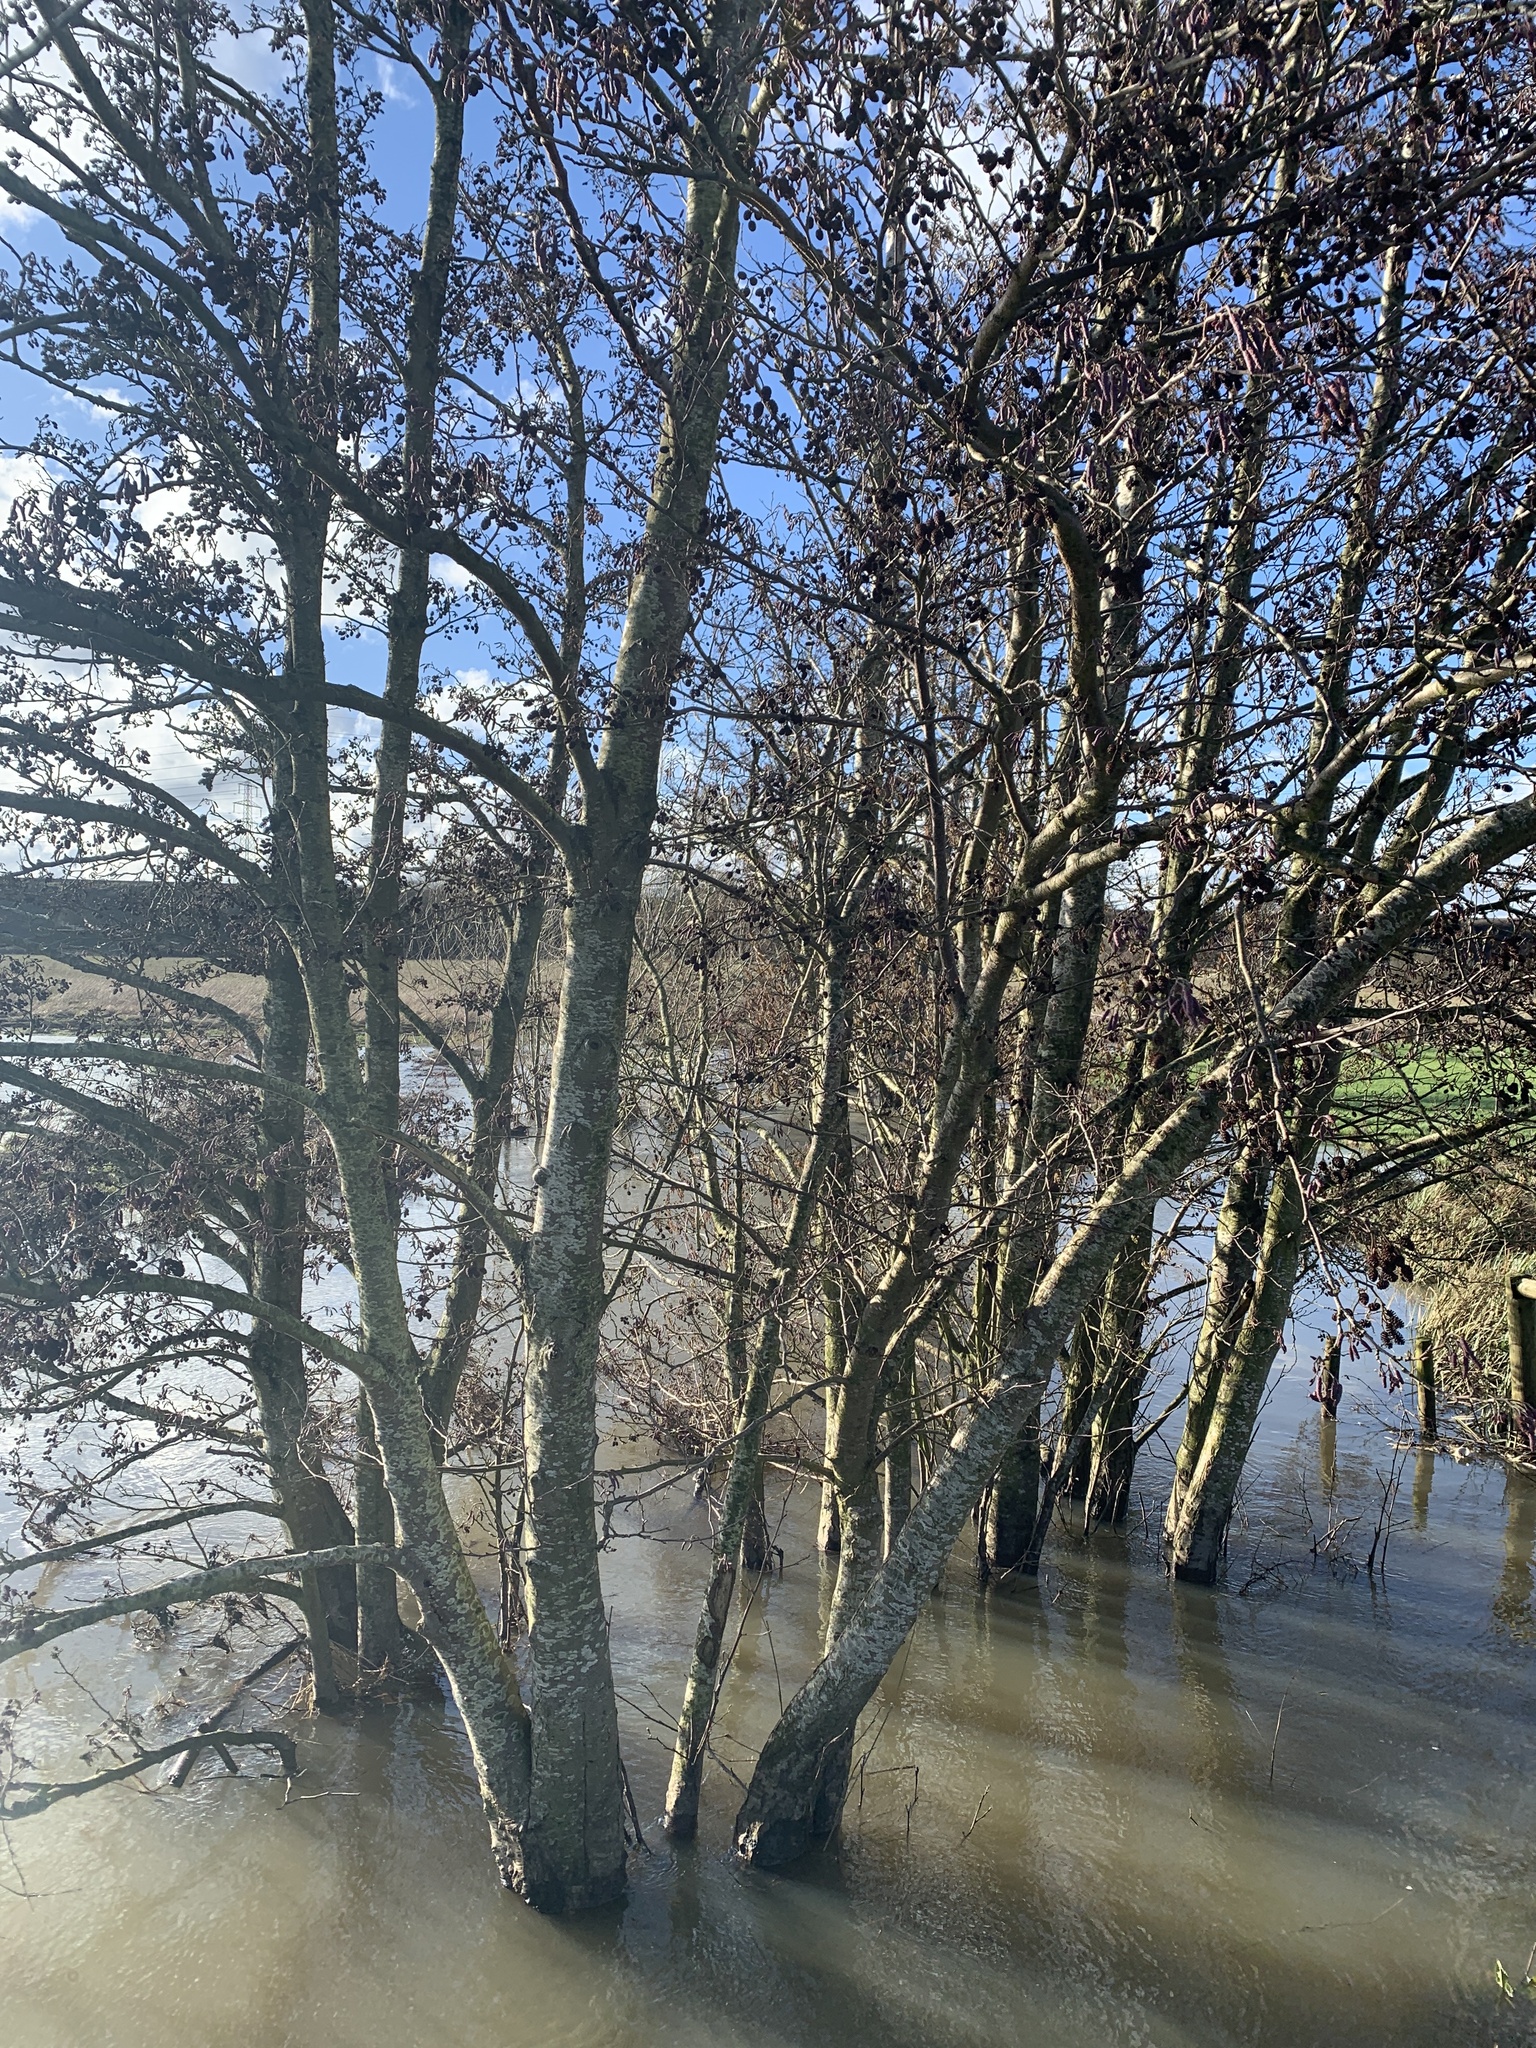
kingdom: Plantae
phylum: Tracheophyta
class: Magnoliopsida
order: Fagales
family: Betulaceae
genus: Alnus
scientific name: Alnus glutinosa
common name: Black alder
